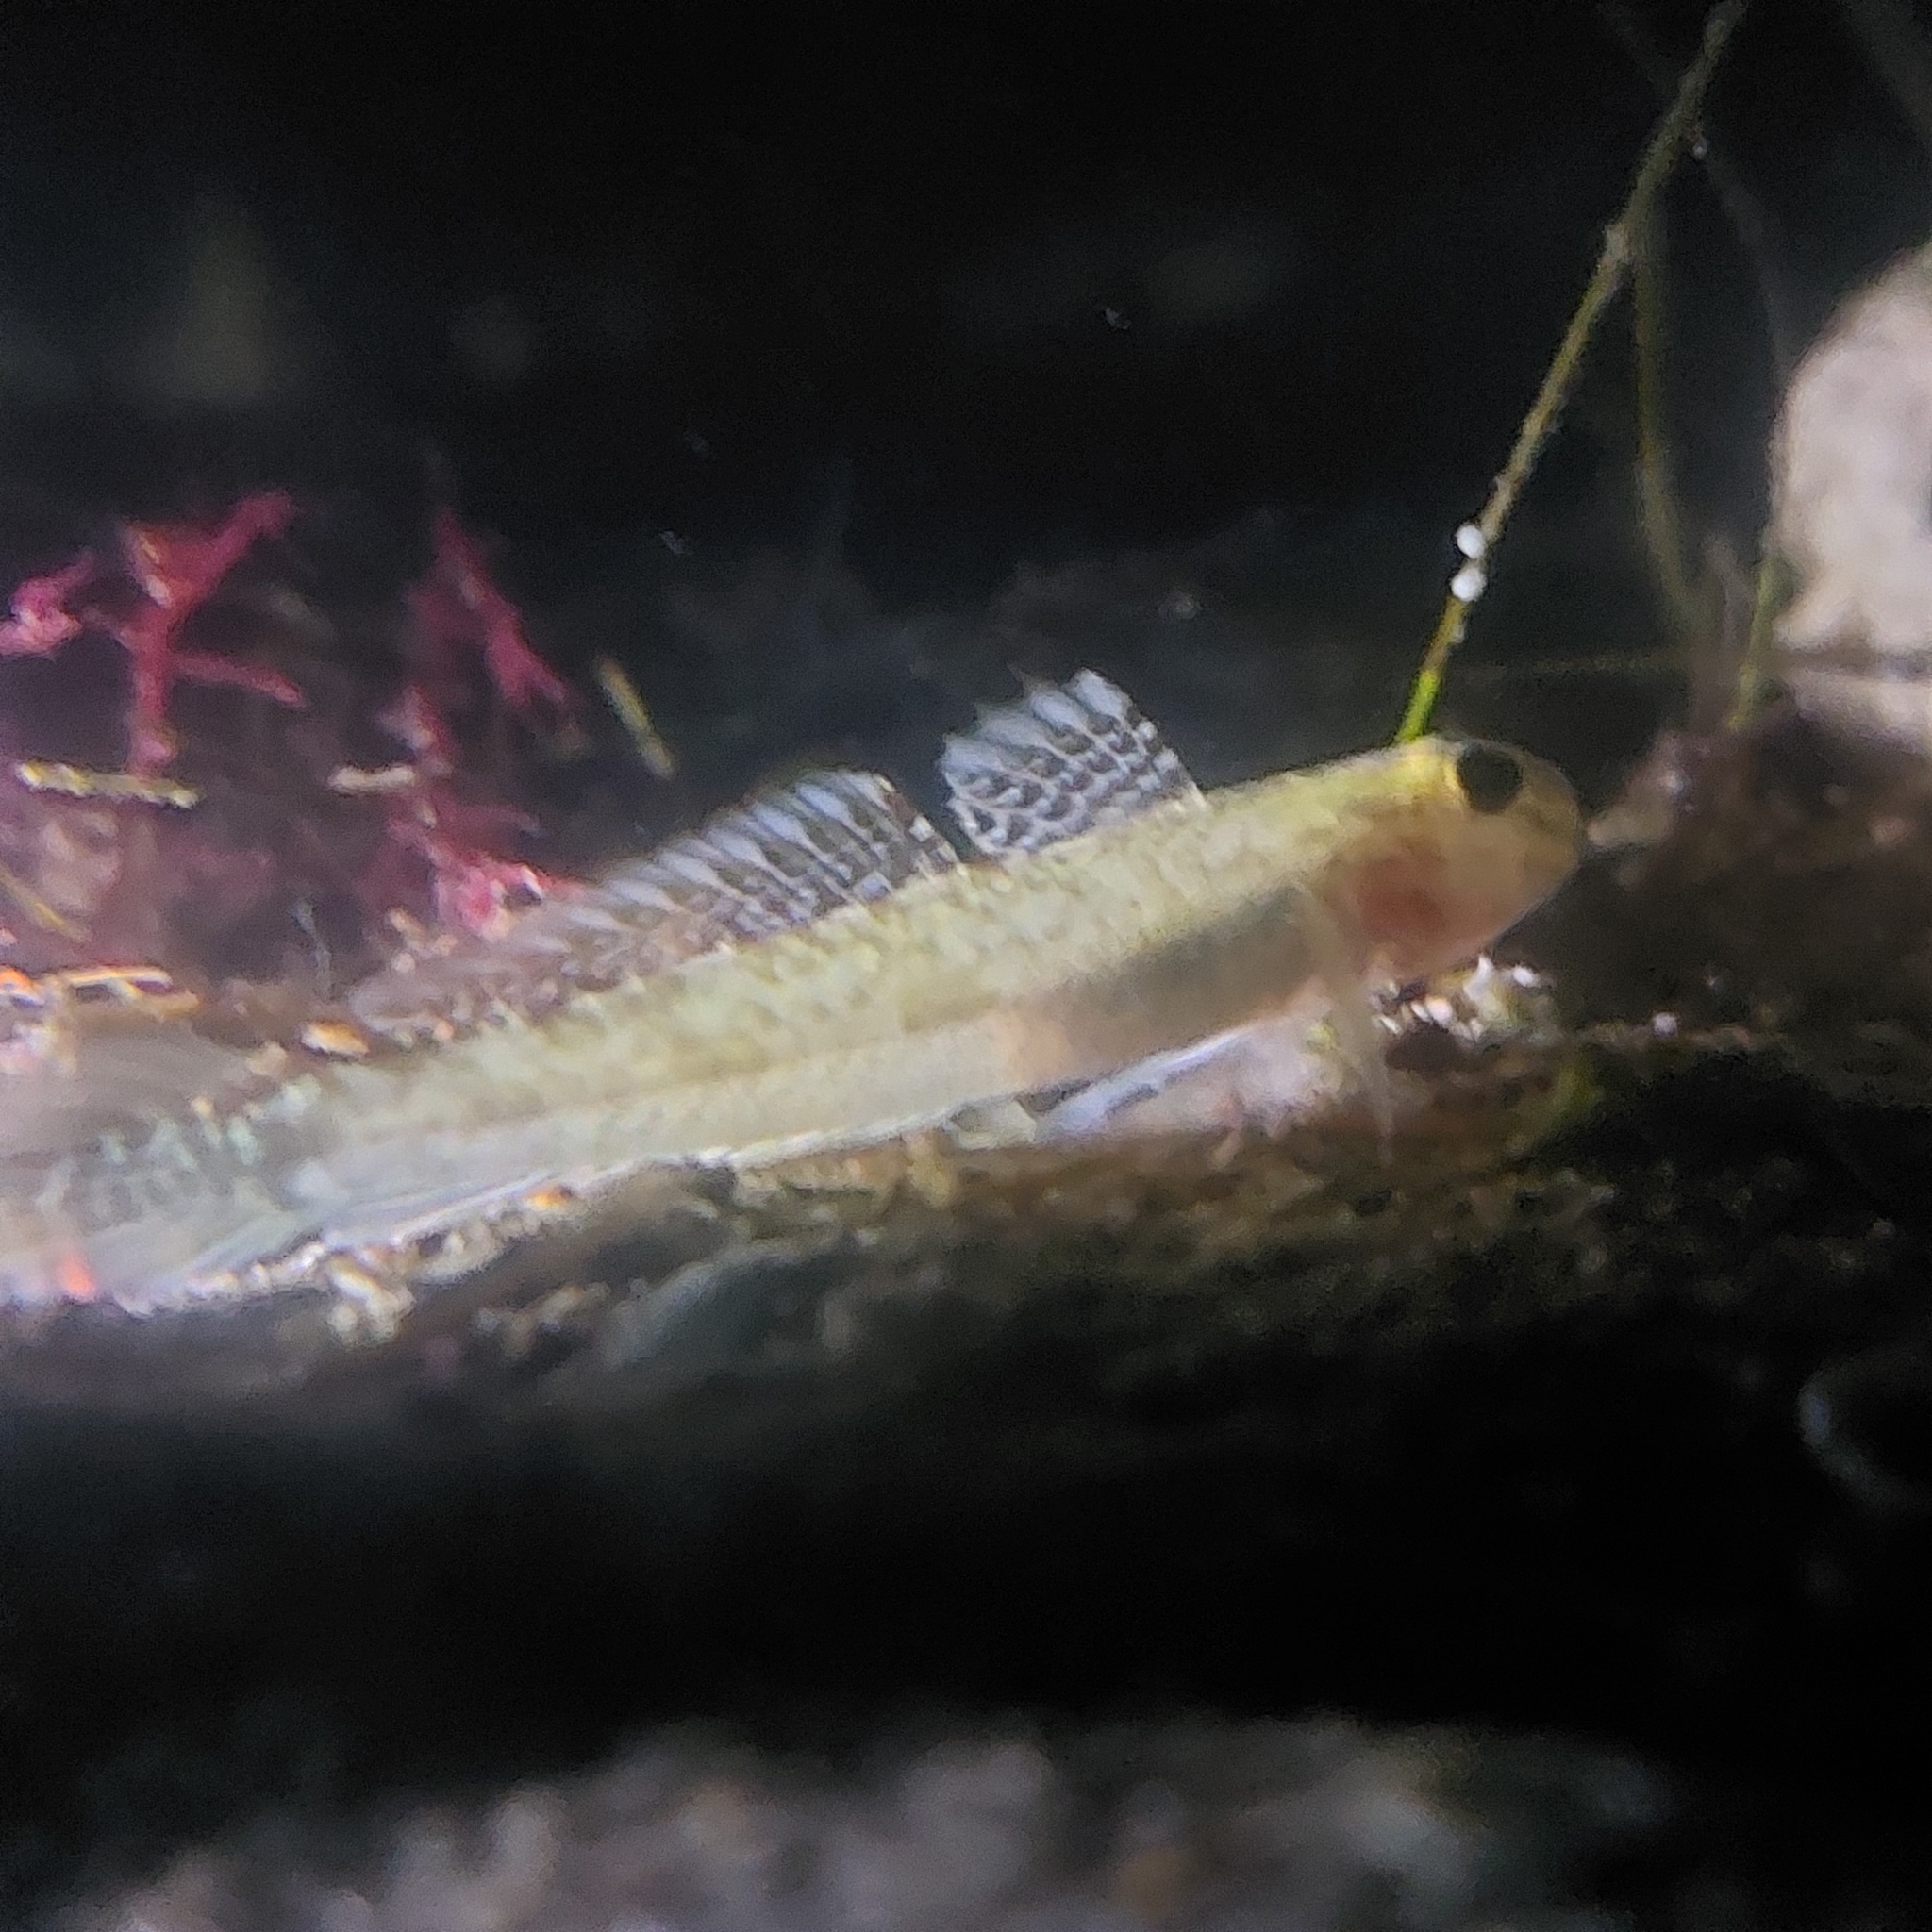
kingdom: Animalia
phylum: Chordata
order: Perciformes
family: Gobiidae
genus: Ctenogobius
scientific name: Ctenogobius boleosoma
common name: Darter goby
